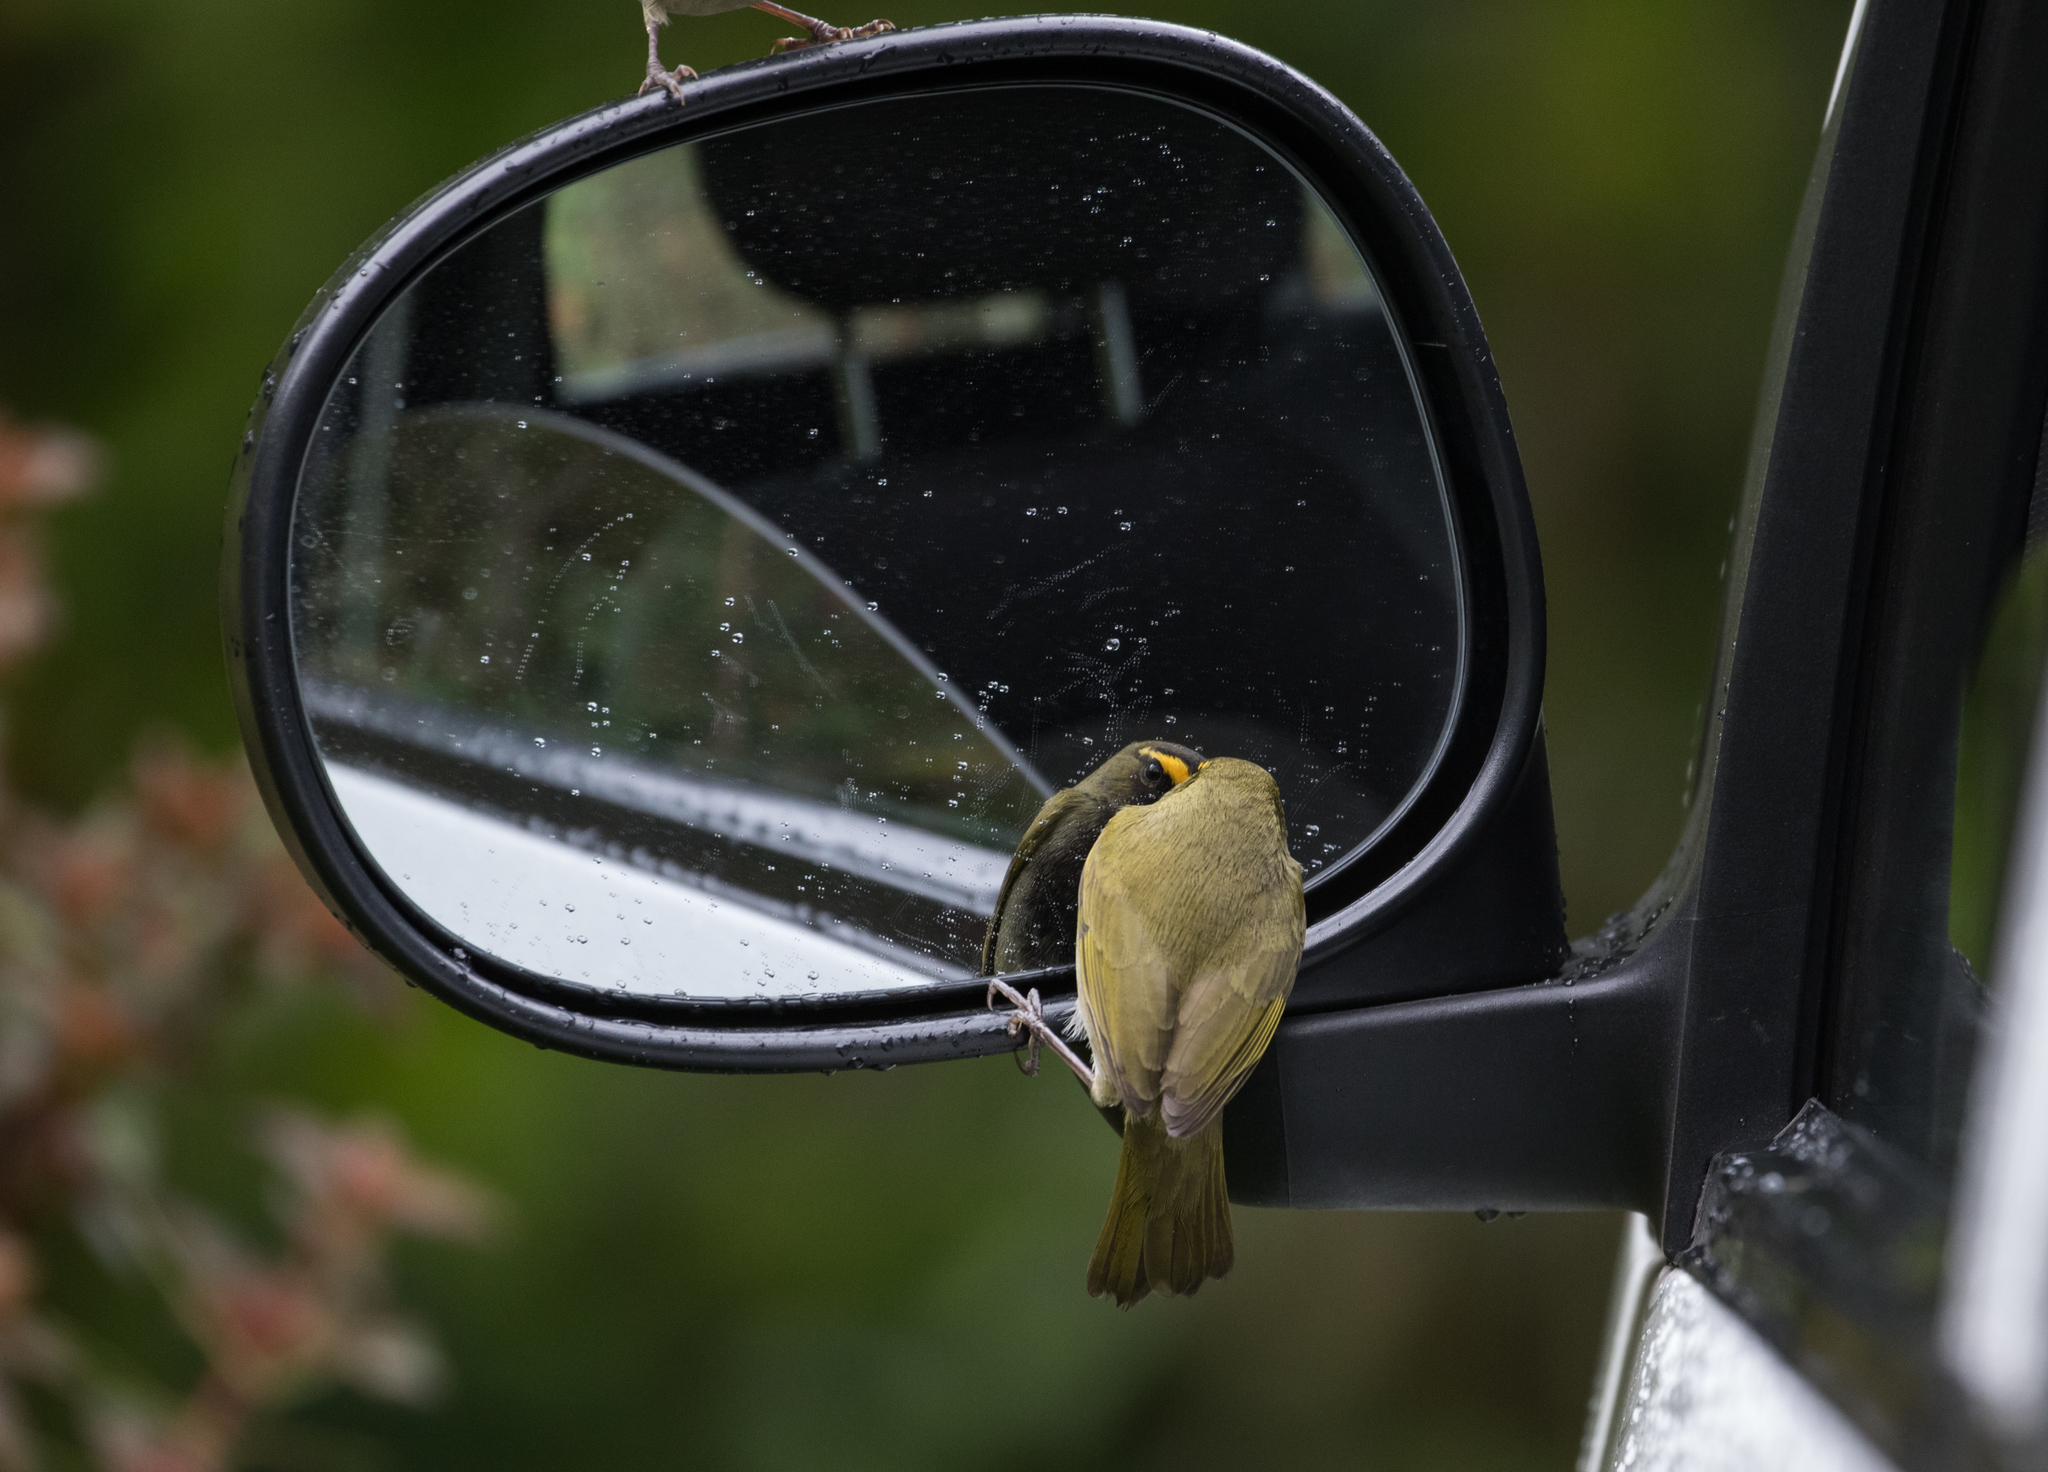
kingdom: Animalia
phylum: Chordata
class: Aves
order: Passeriformes
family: Thraupidae
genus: Tiaris
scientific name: Tiaris olivaceus
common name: Yellow-faced grassquit
